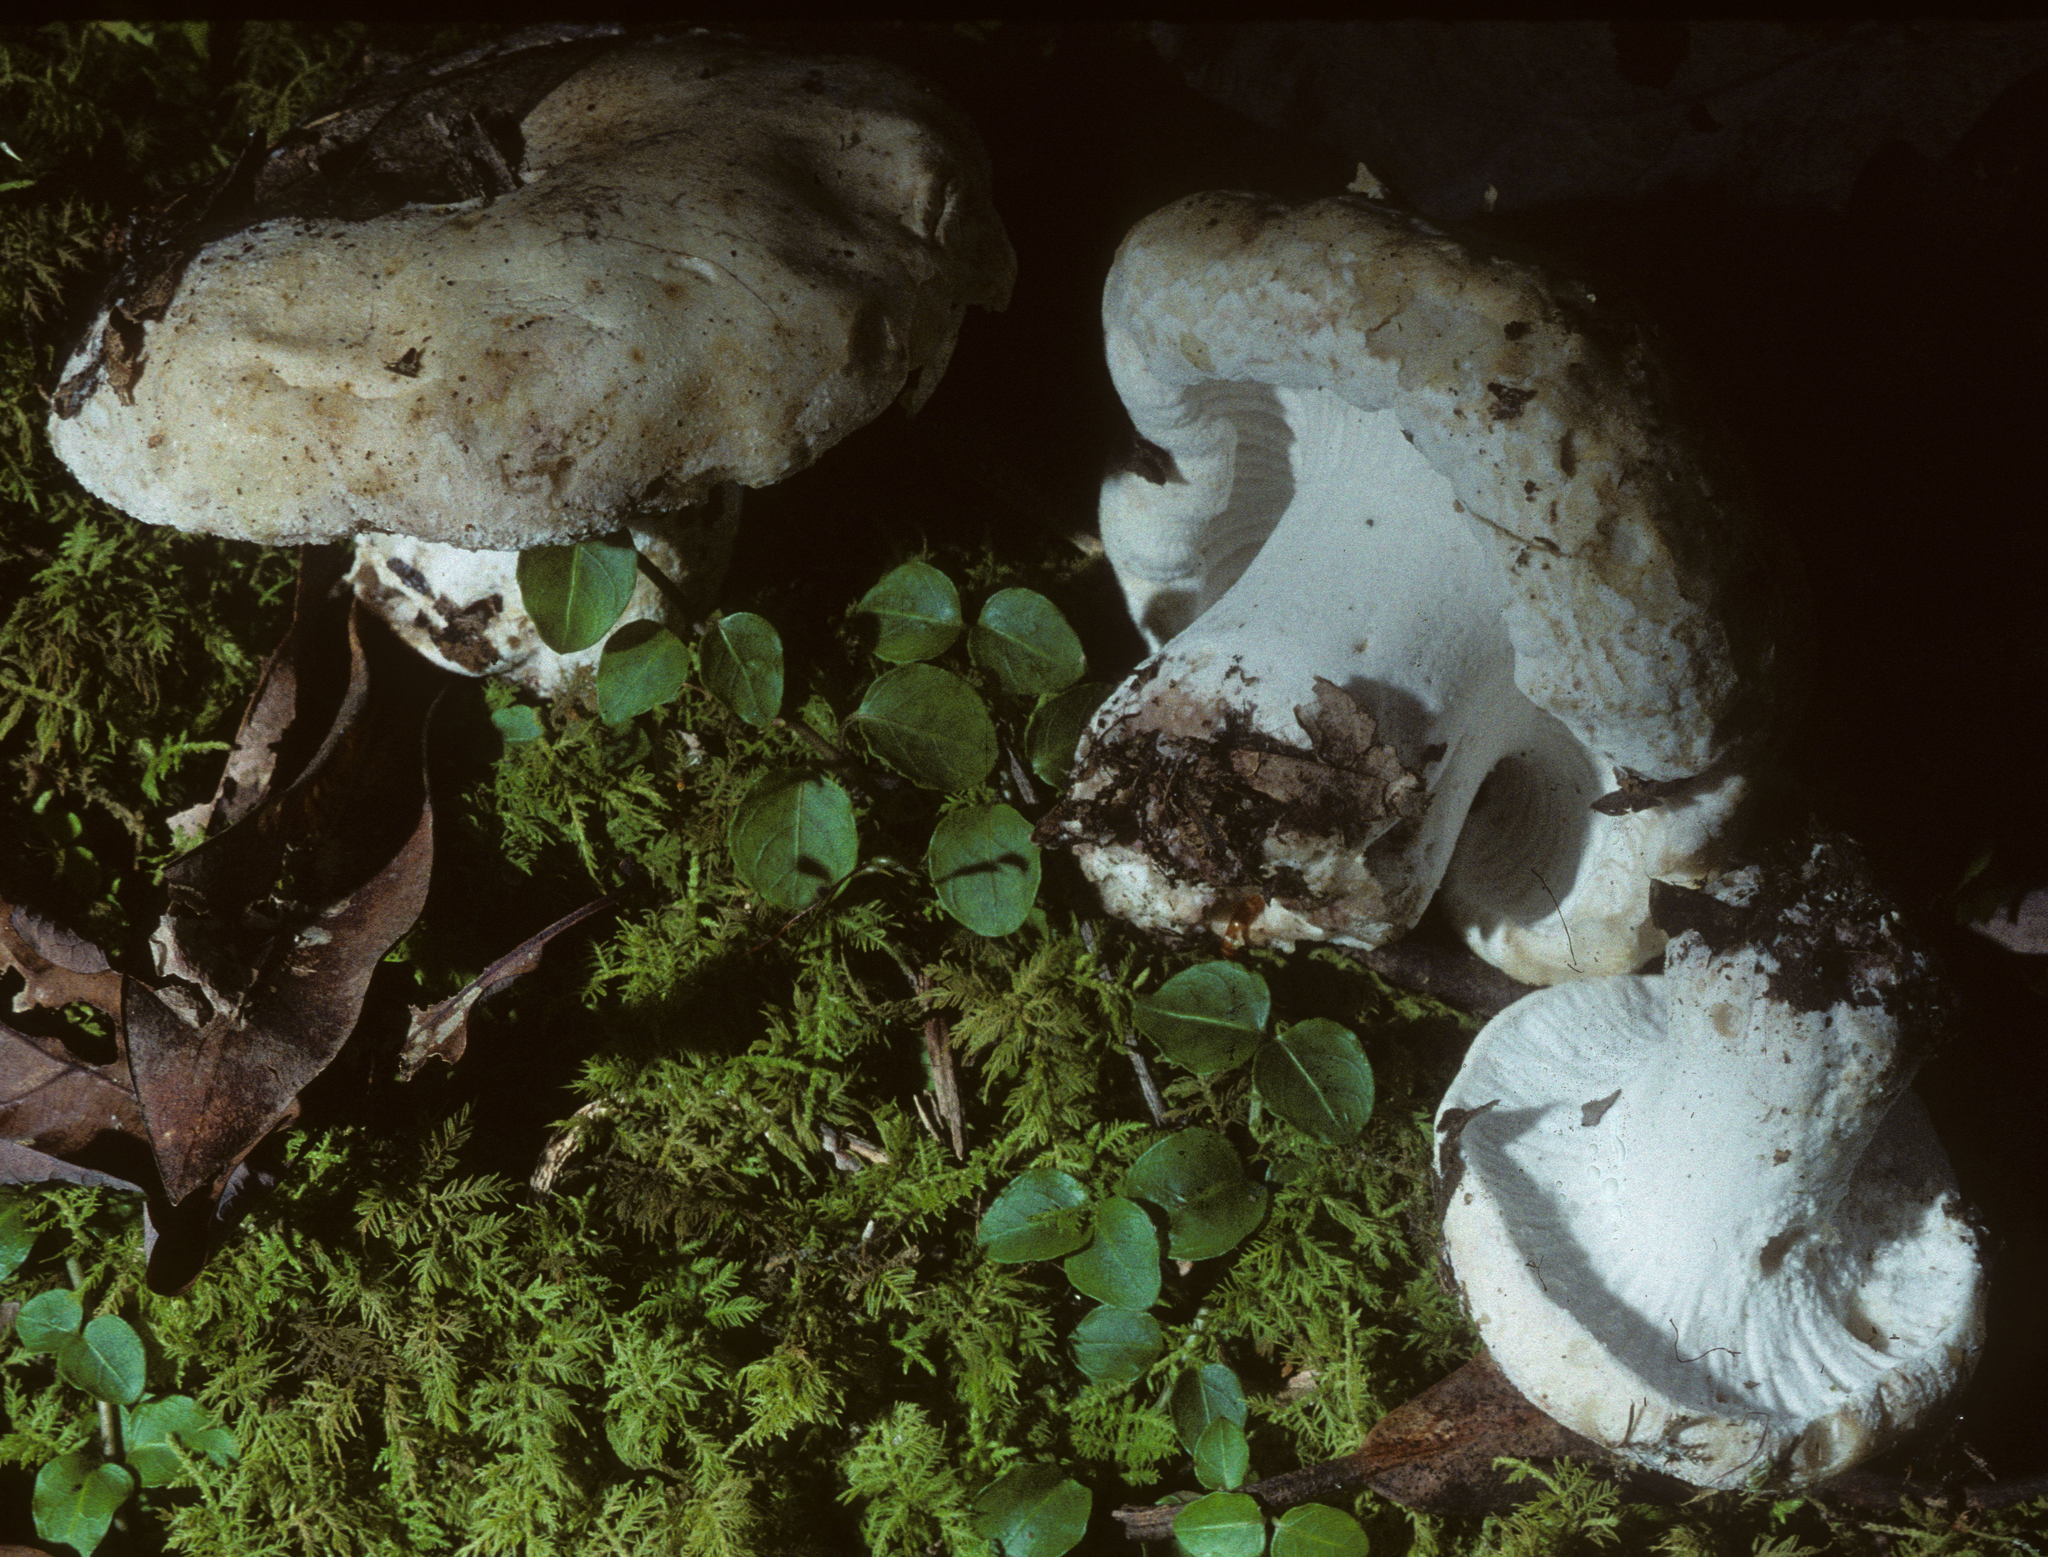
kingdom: Fungi
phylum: Ascomycota
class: Sordariomycetes
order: Hypocreales
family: Hypocreaceae
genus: Hypomyces
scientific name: Hypomyces
